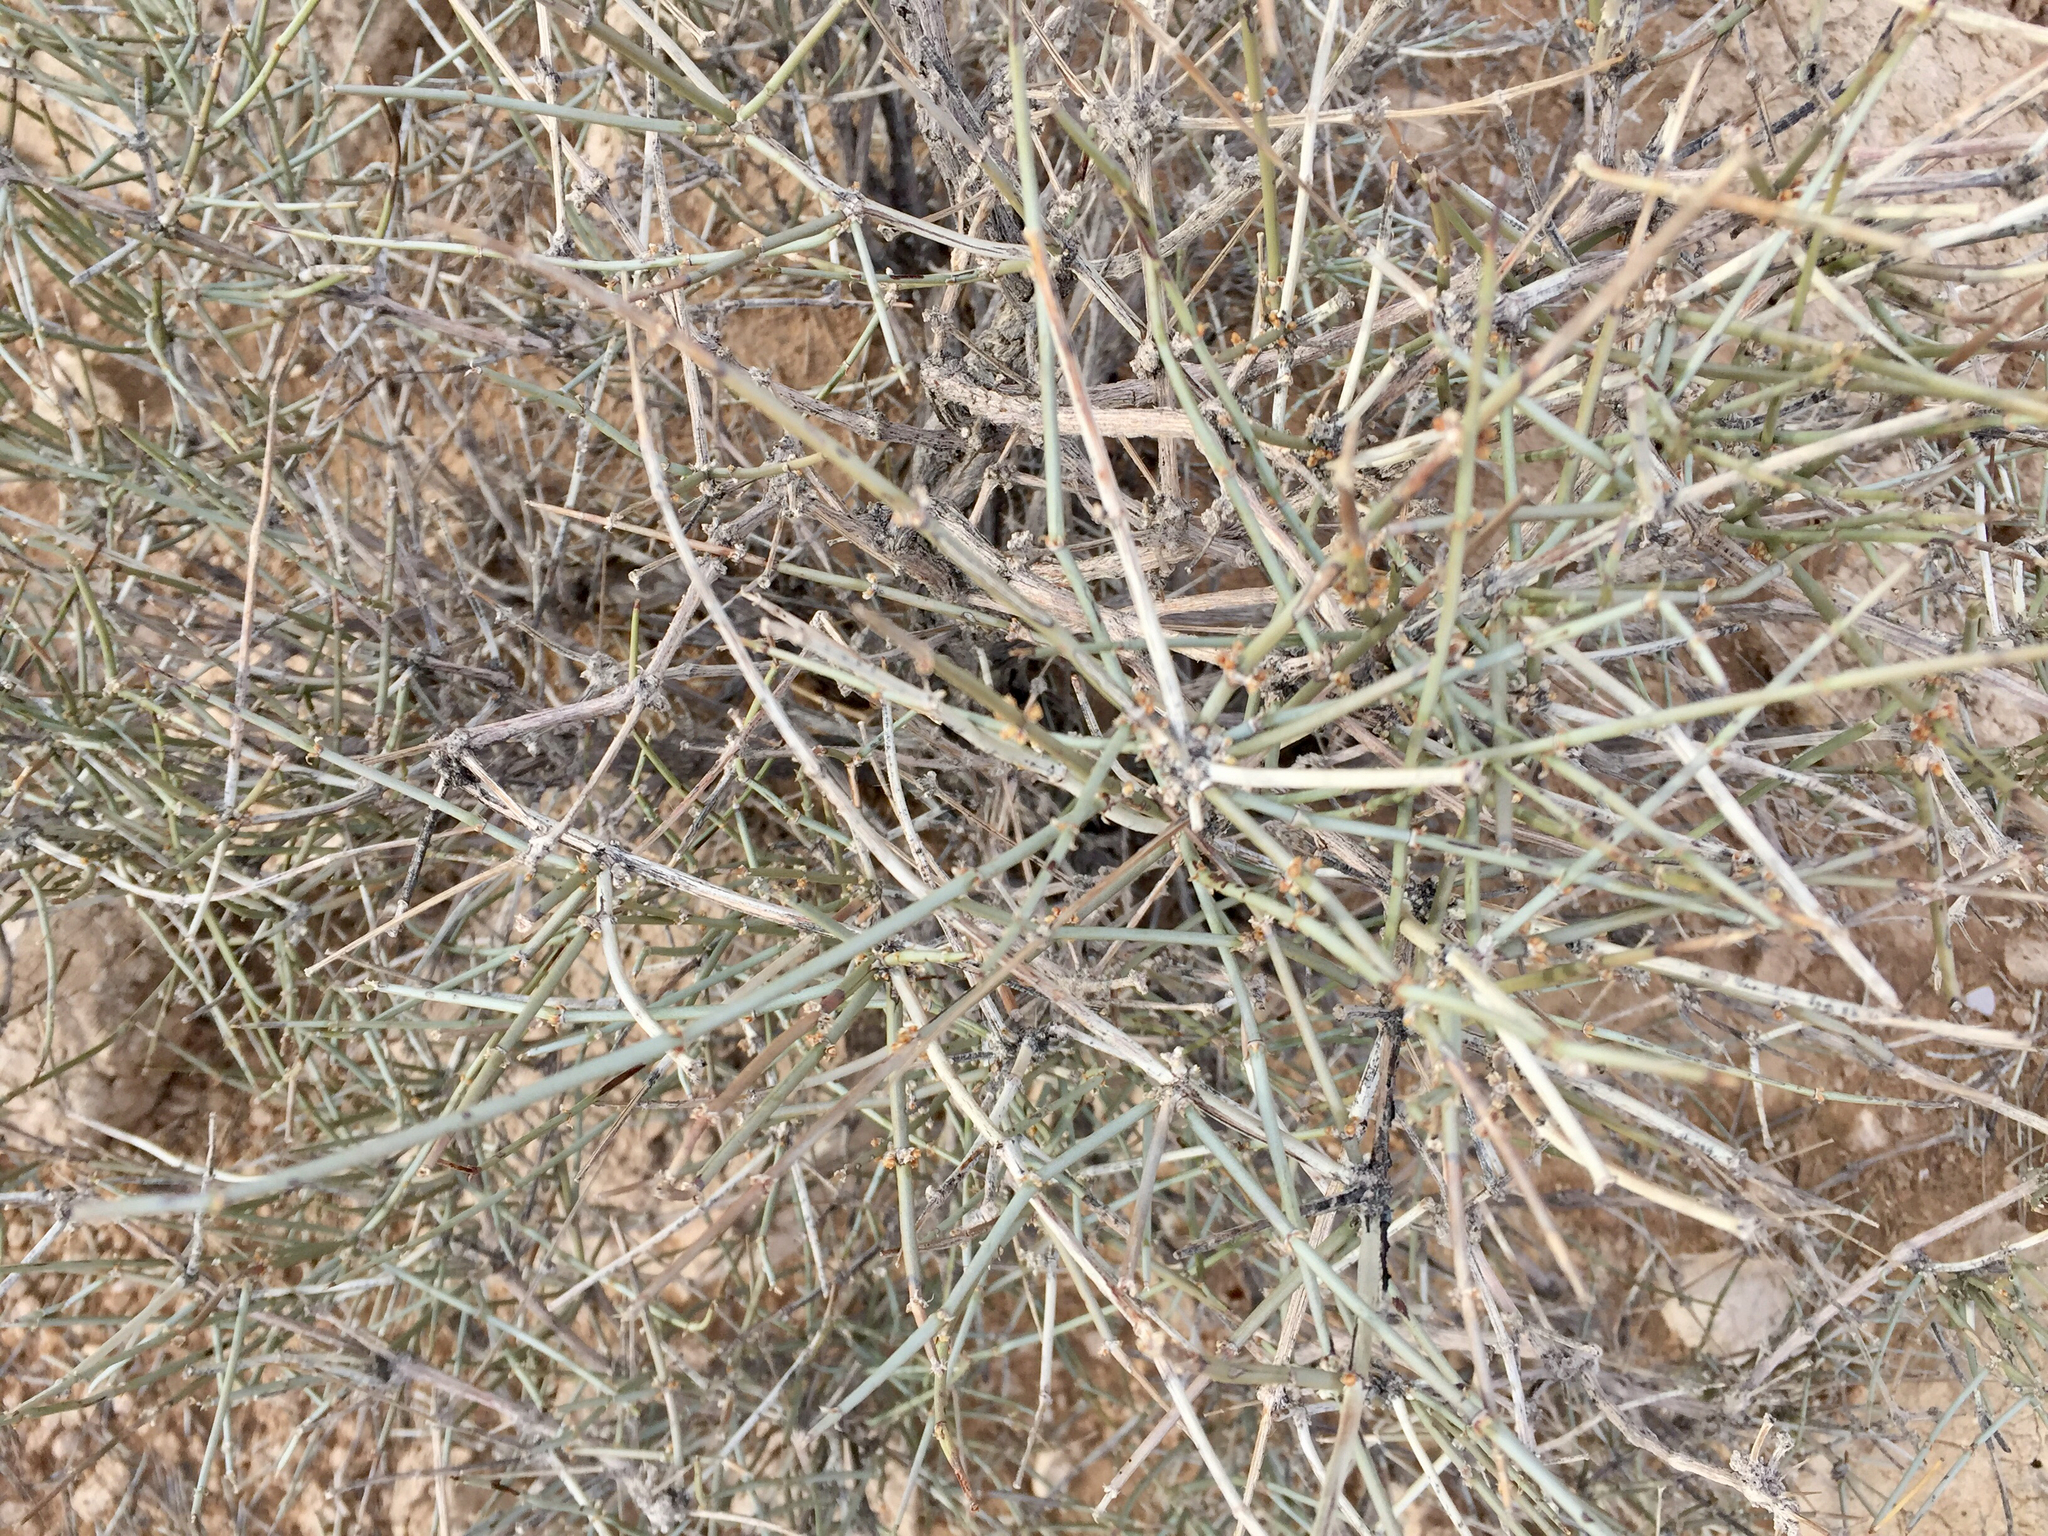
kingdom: Plantae
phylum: Tracheophyta
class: Gnetopsida
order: Ephedrales
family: Ephedraceae
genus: Ephedra
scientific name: Ephedra nevadensis
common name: Gray ephedra
